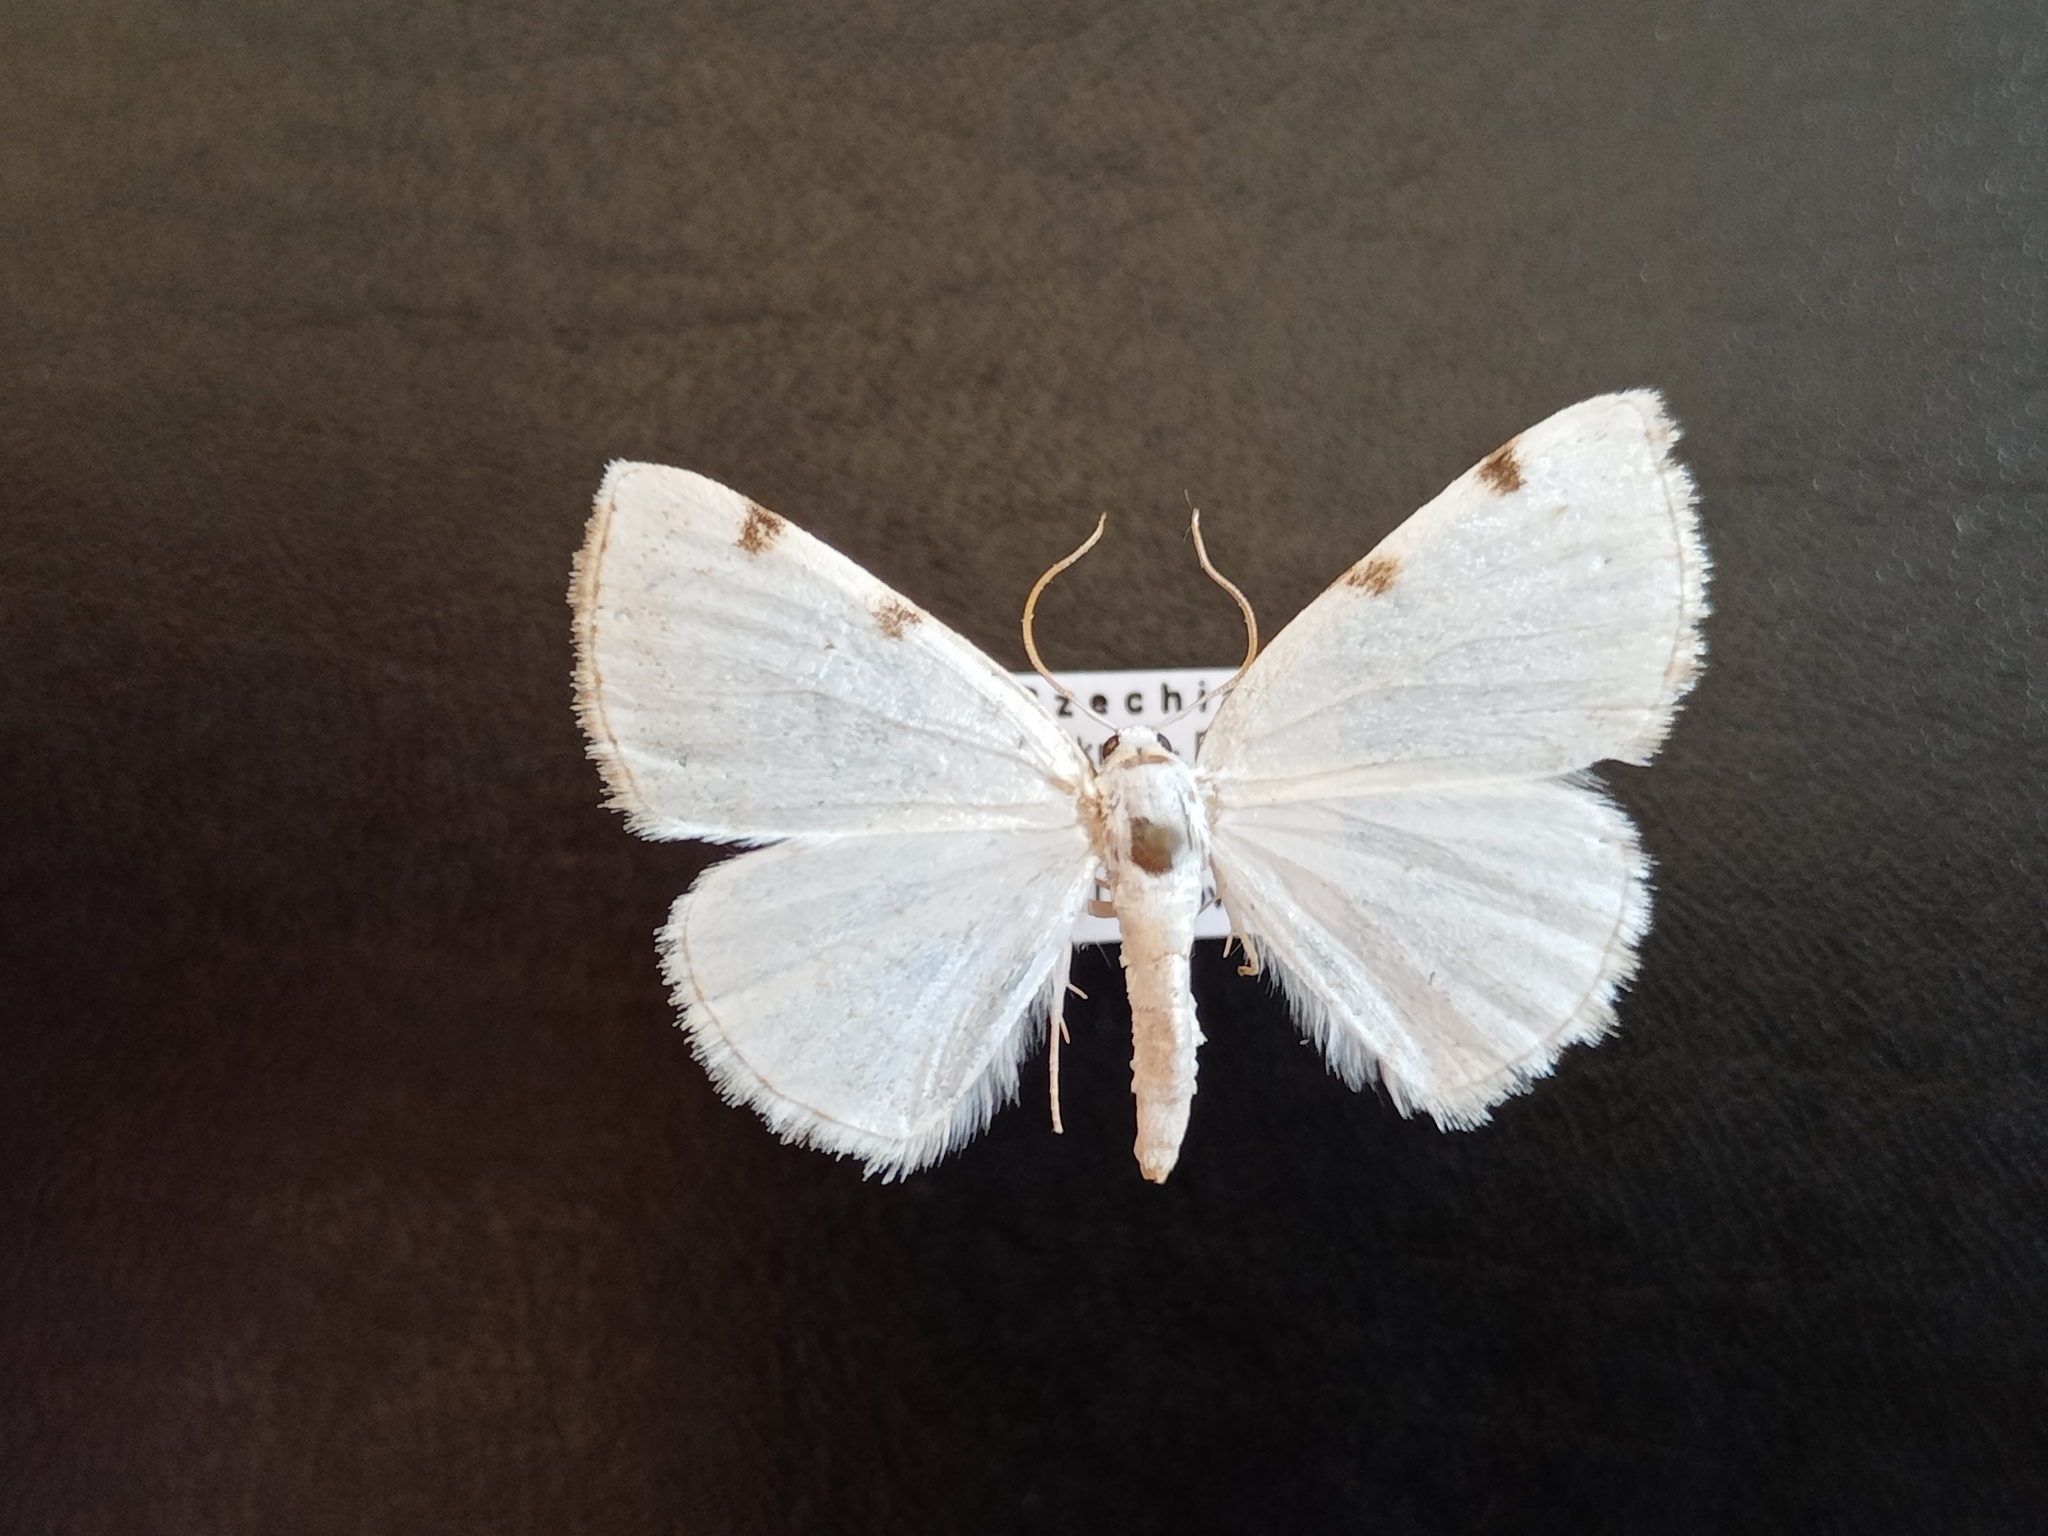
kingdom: Animalia
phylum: Arthropoda
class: Insecta
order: Lepidoptera
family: Geometridae
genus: Lomographa
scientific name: Lomographa bimaculata
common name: White-pinion spotted
